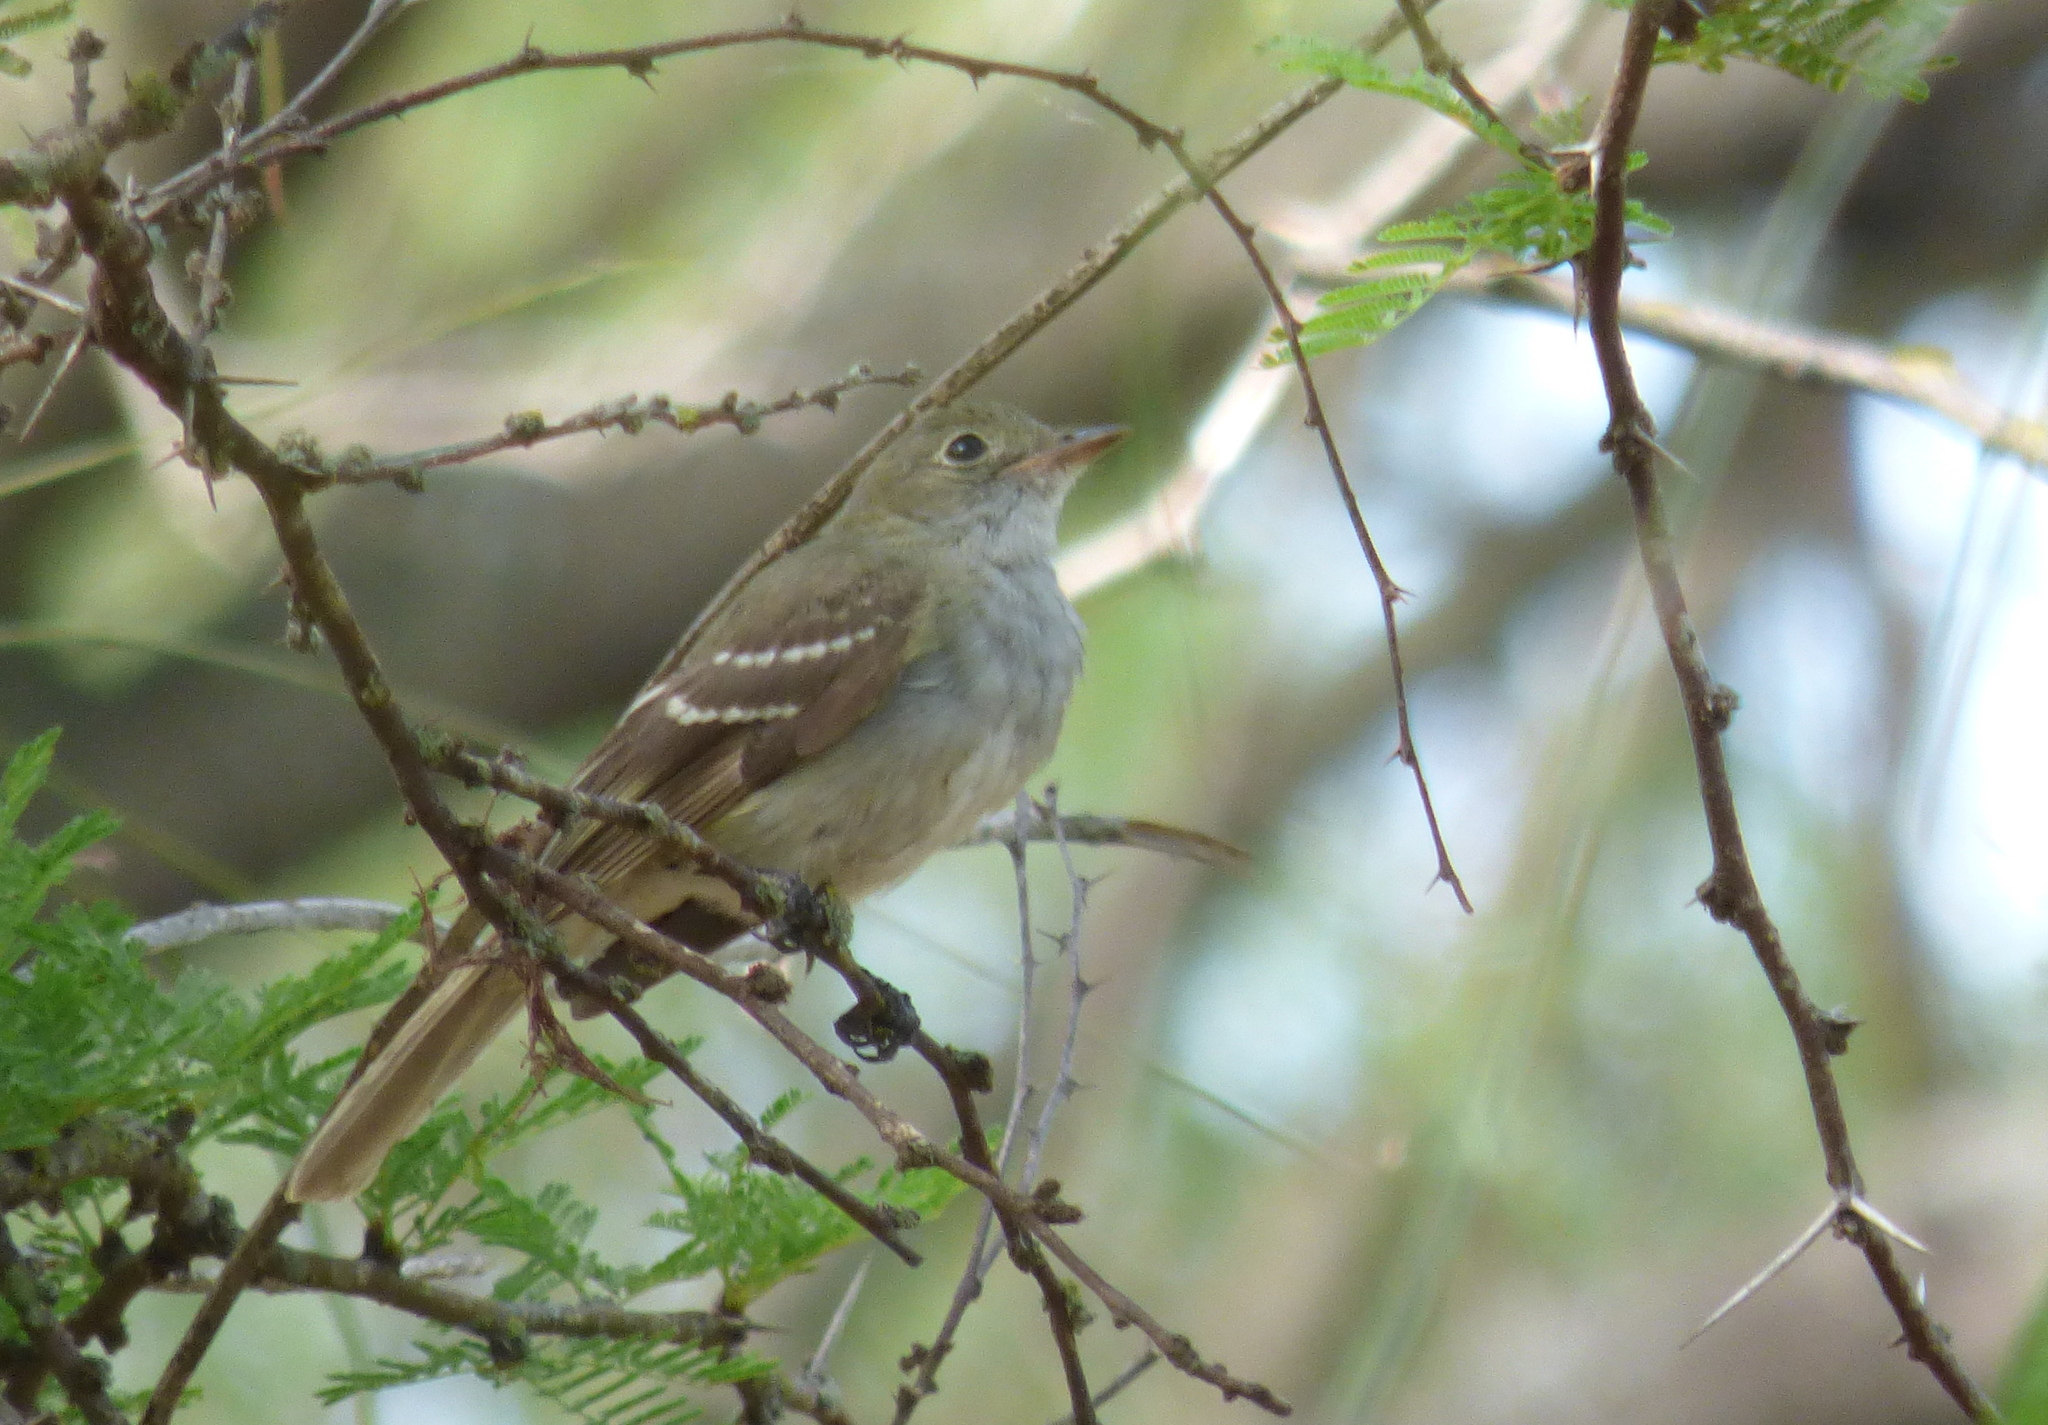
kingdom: Animalia
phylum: Chordata
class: Aves
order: Passeriformes
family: Tyrannidae
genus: Elaenia
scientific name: Elaenia parvirostris
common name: Small-billed elaenia
